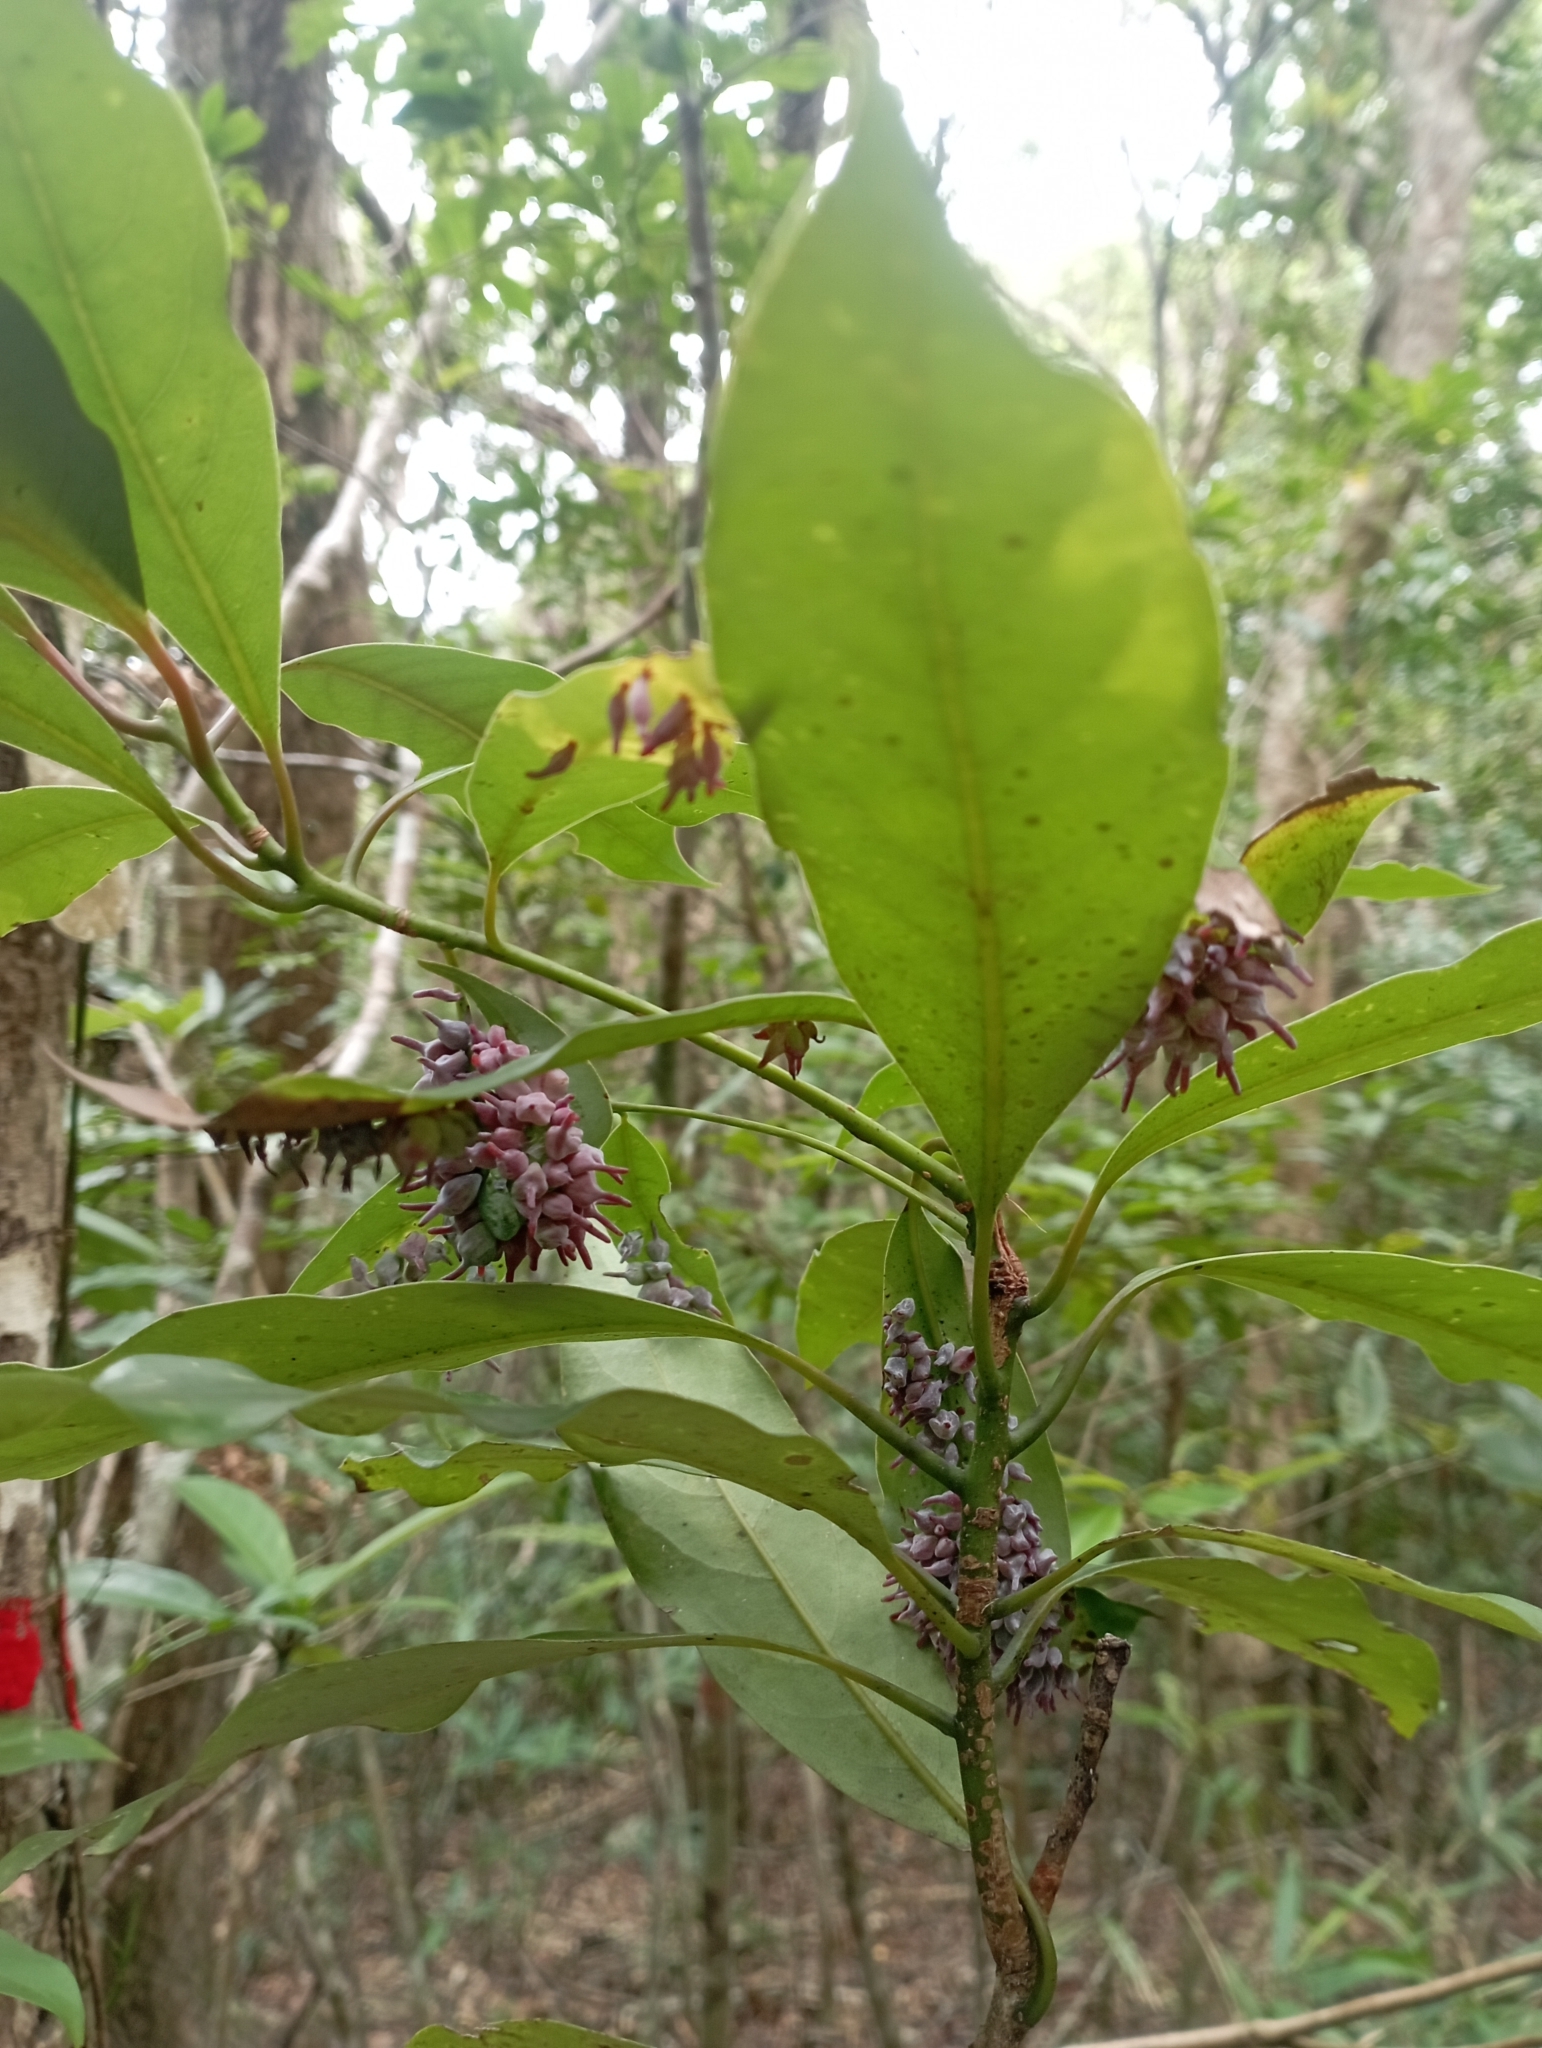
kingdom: Animalia
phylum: Arthropoda
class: Insecta
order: Diptera
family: Cecidomyiidae
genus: Daphnephila
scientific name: Daphnephila ornithocephala
